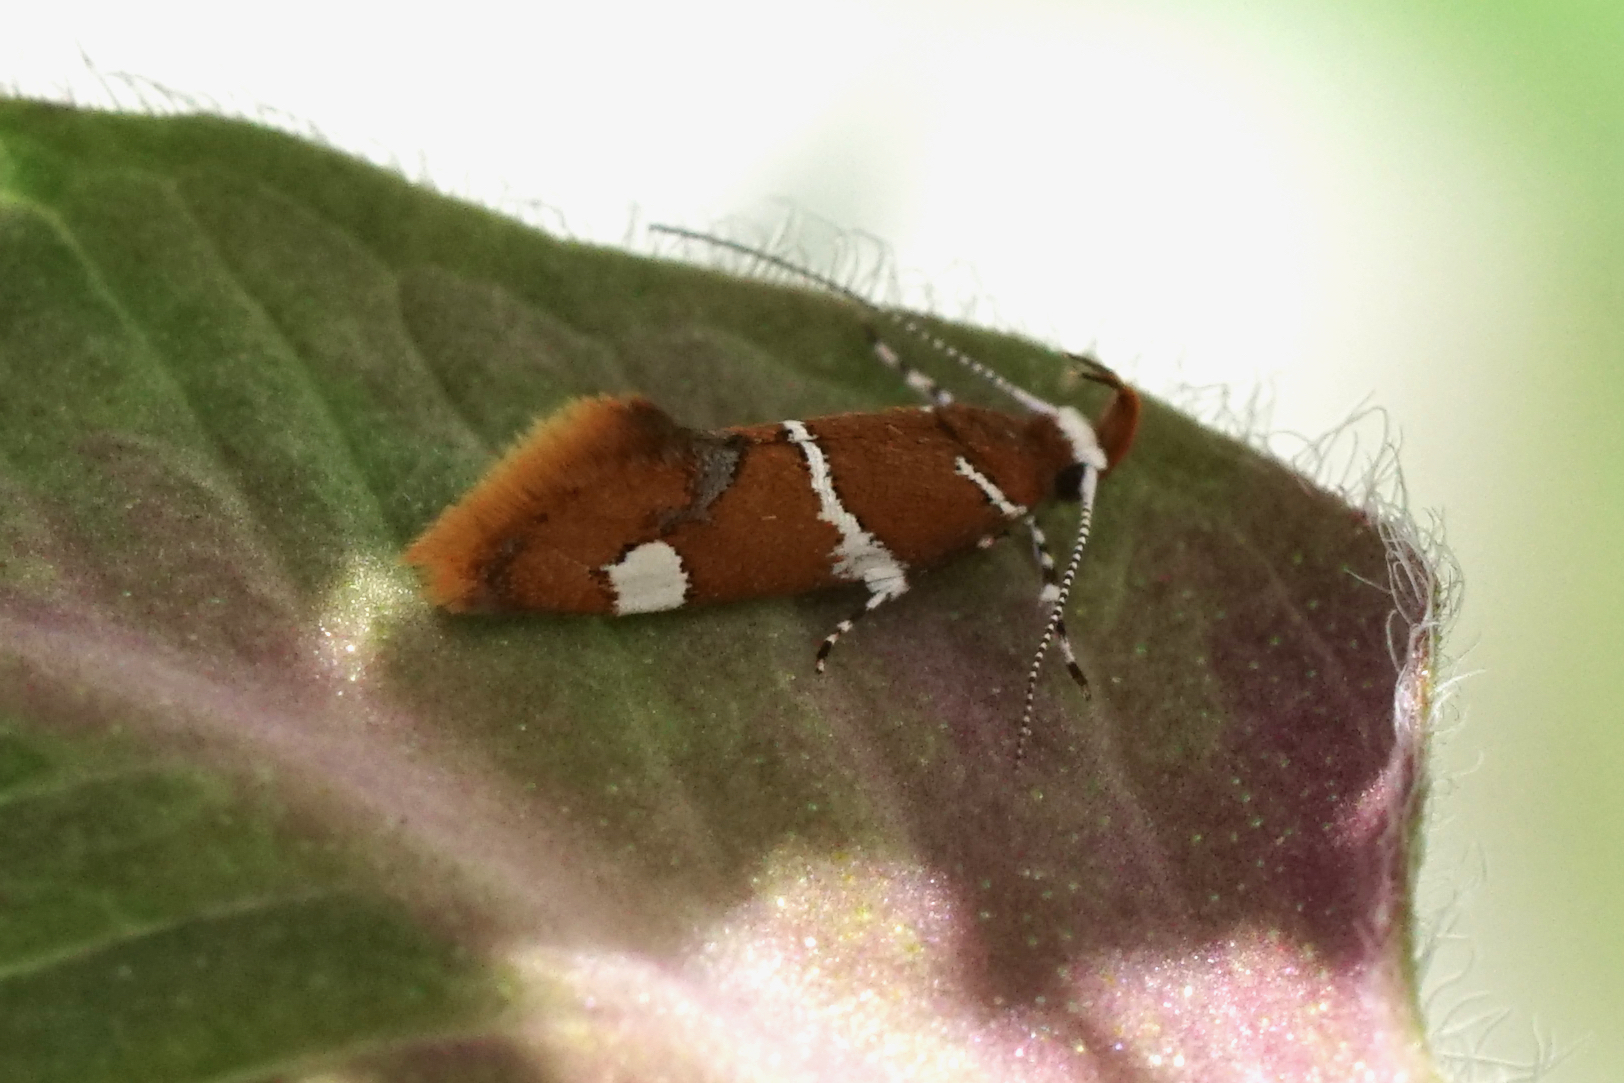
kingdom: Animalia
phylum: Arthropoda
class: Insecta
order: Lepidoptera
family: Oecophoridae
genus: Promalactis
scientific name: Promalactis suzukiella
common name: Moth
